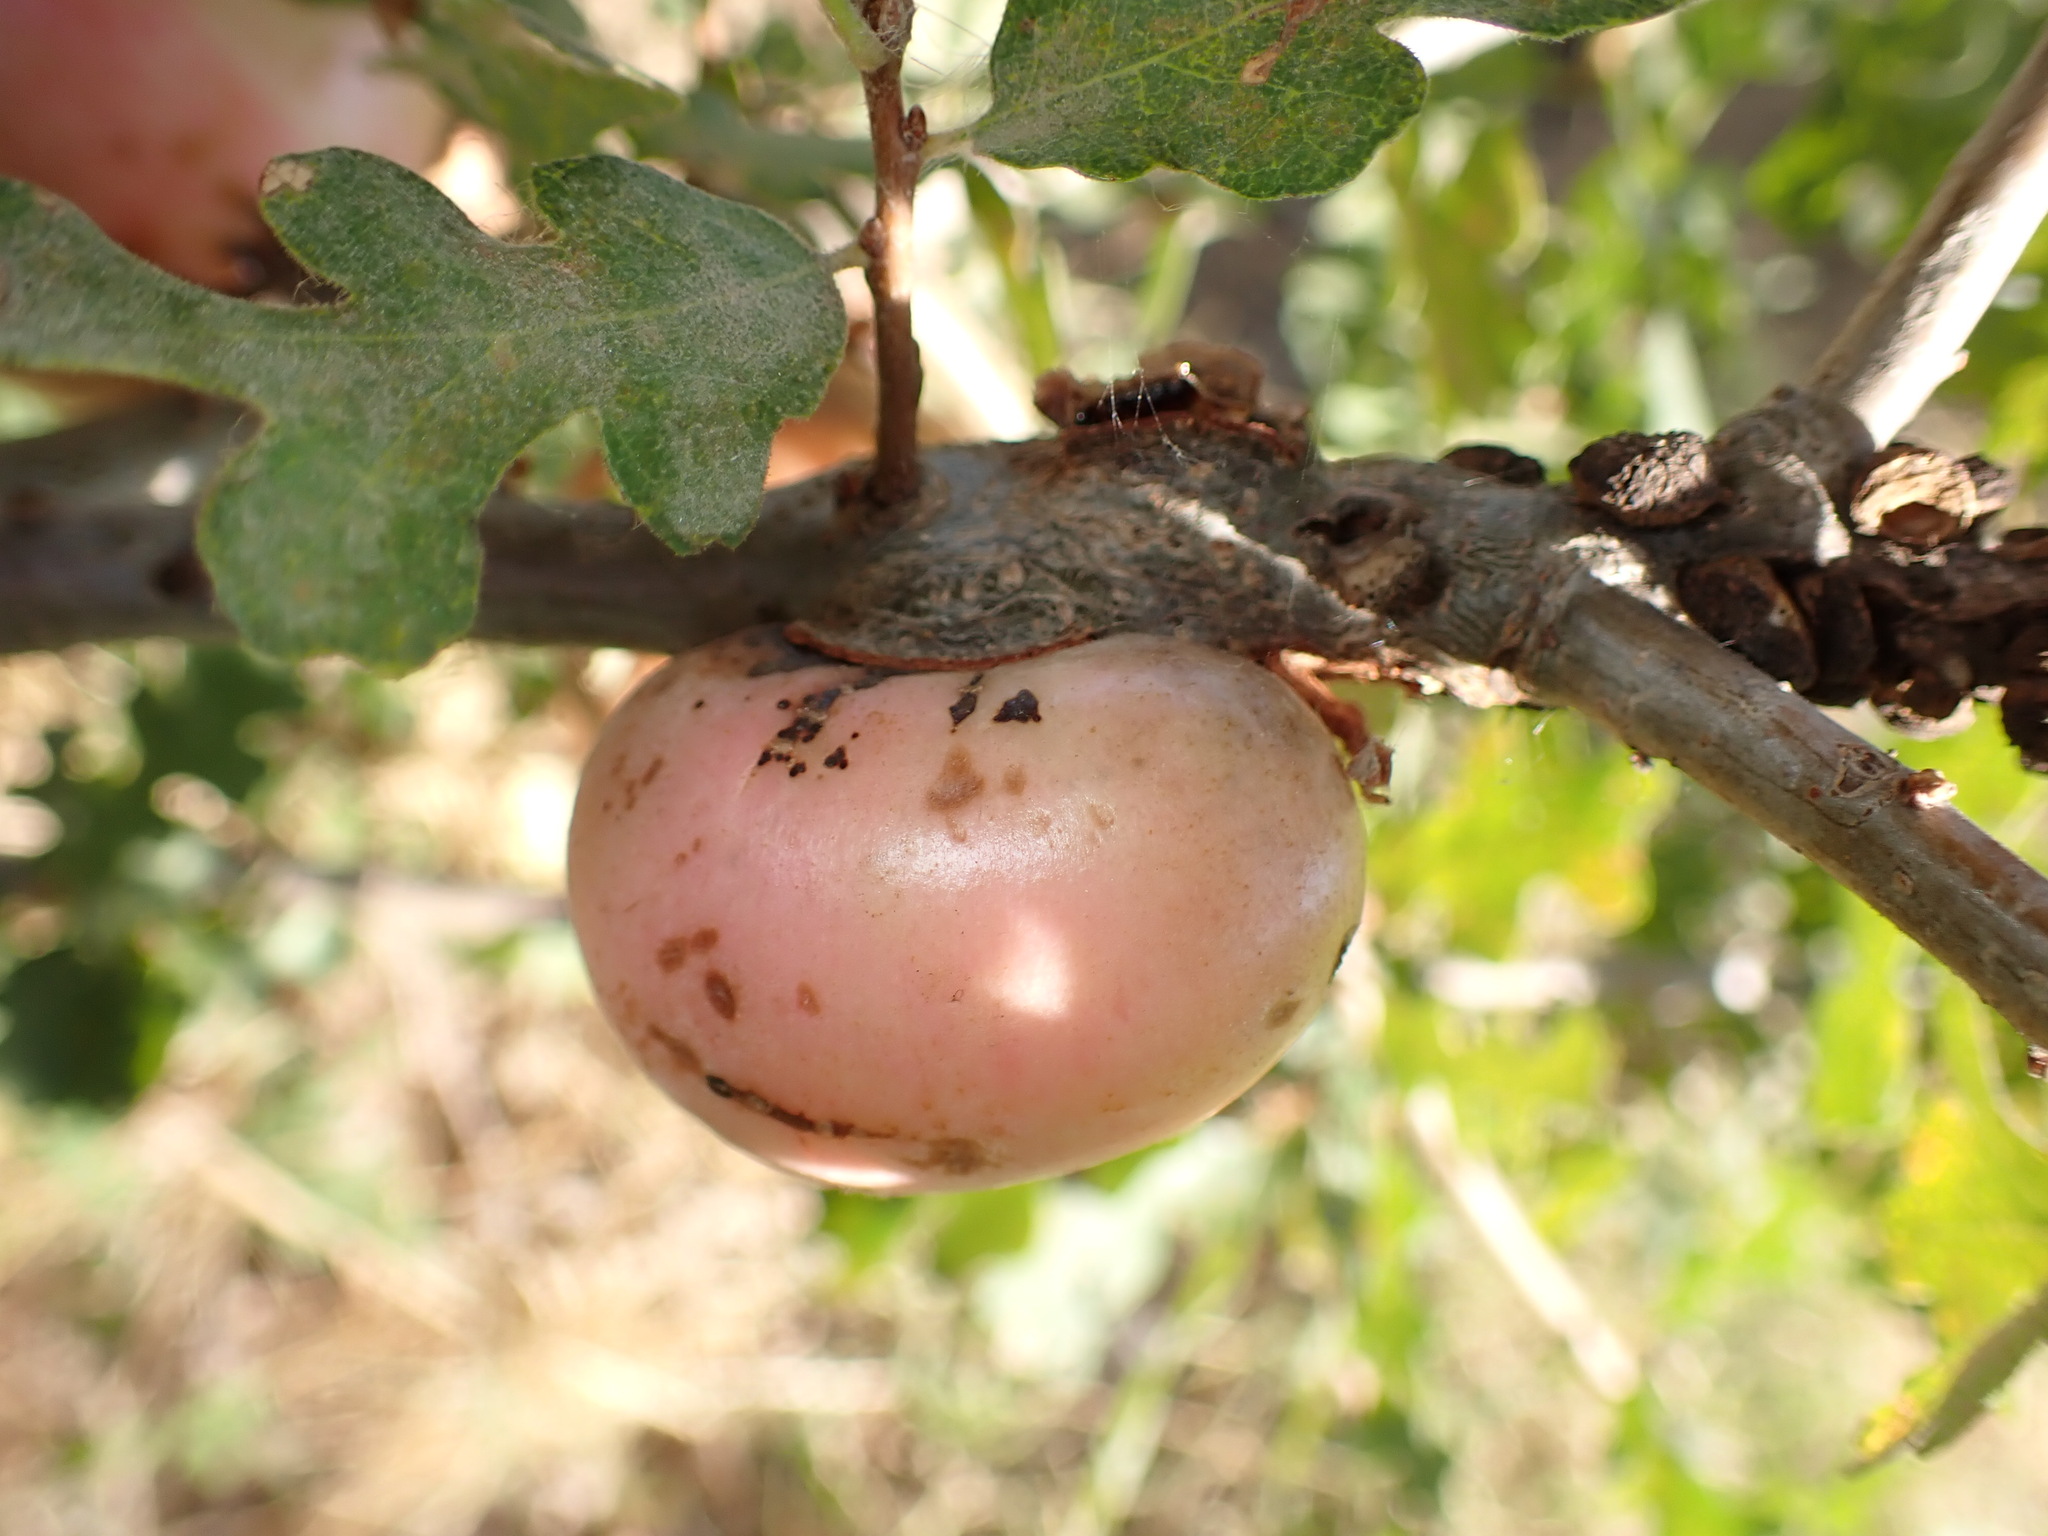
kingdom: Animalia
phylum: Arthropoda
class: Insecta
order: Hymenoptera
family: Cynipidae
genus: Andricus
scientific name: Andricus quercuscalifornicus
